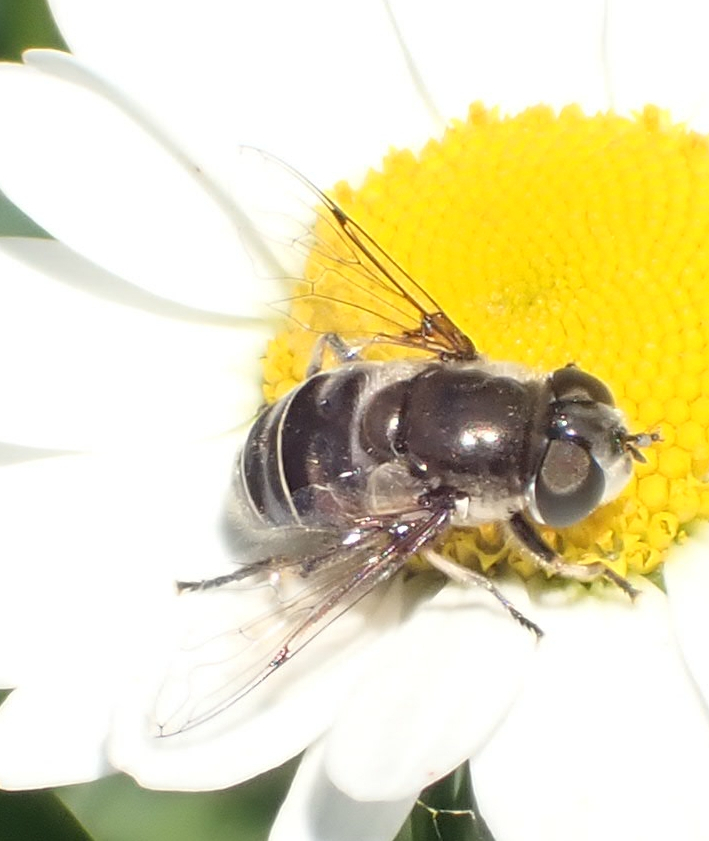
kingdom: Animalia
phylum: Arthropoda
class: Insecta
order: Diptera
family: Syrphidae
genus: Eristalis
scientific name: Eristalis dimidiata
